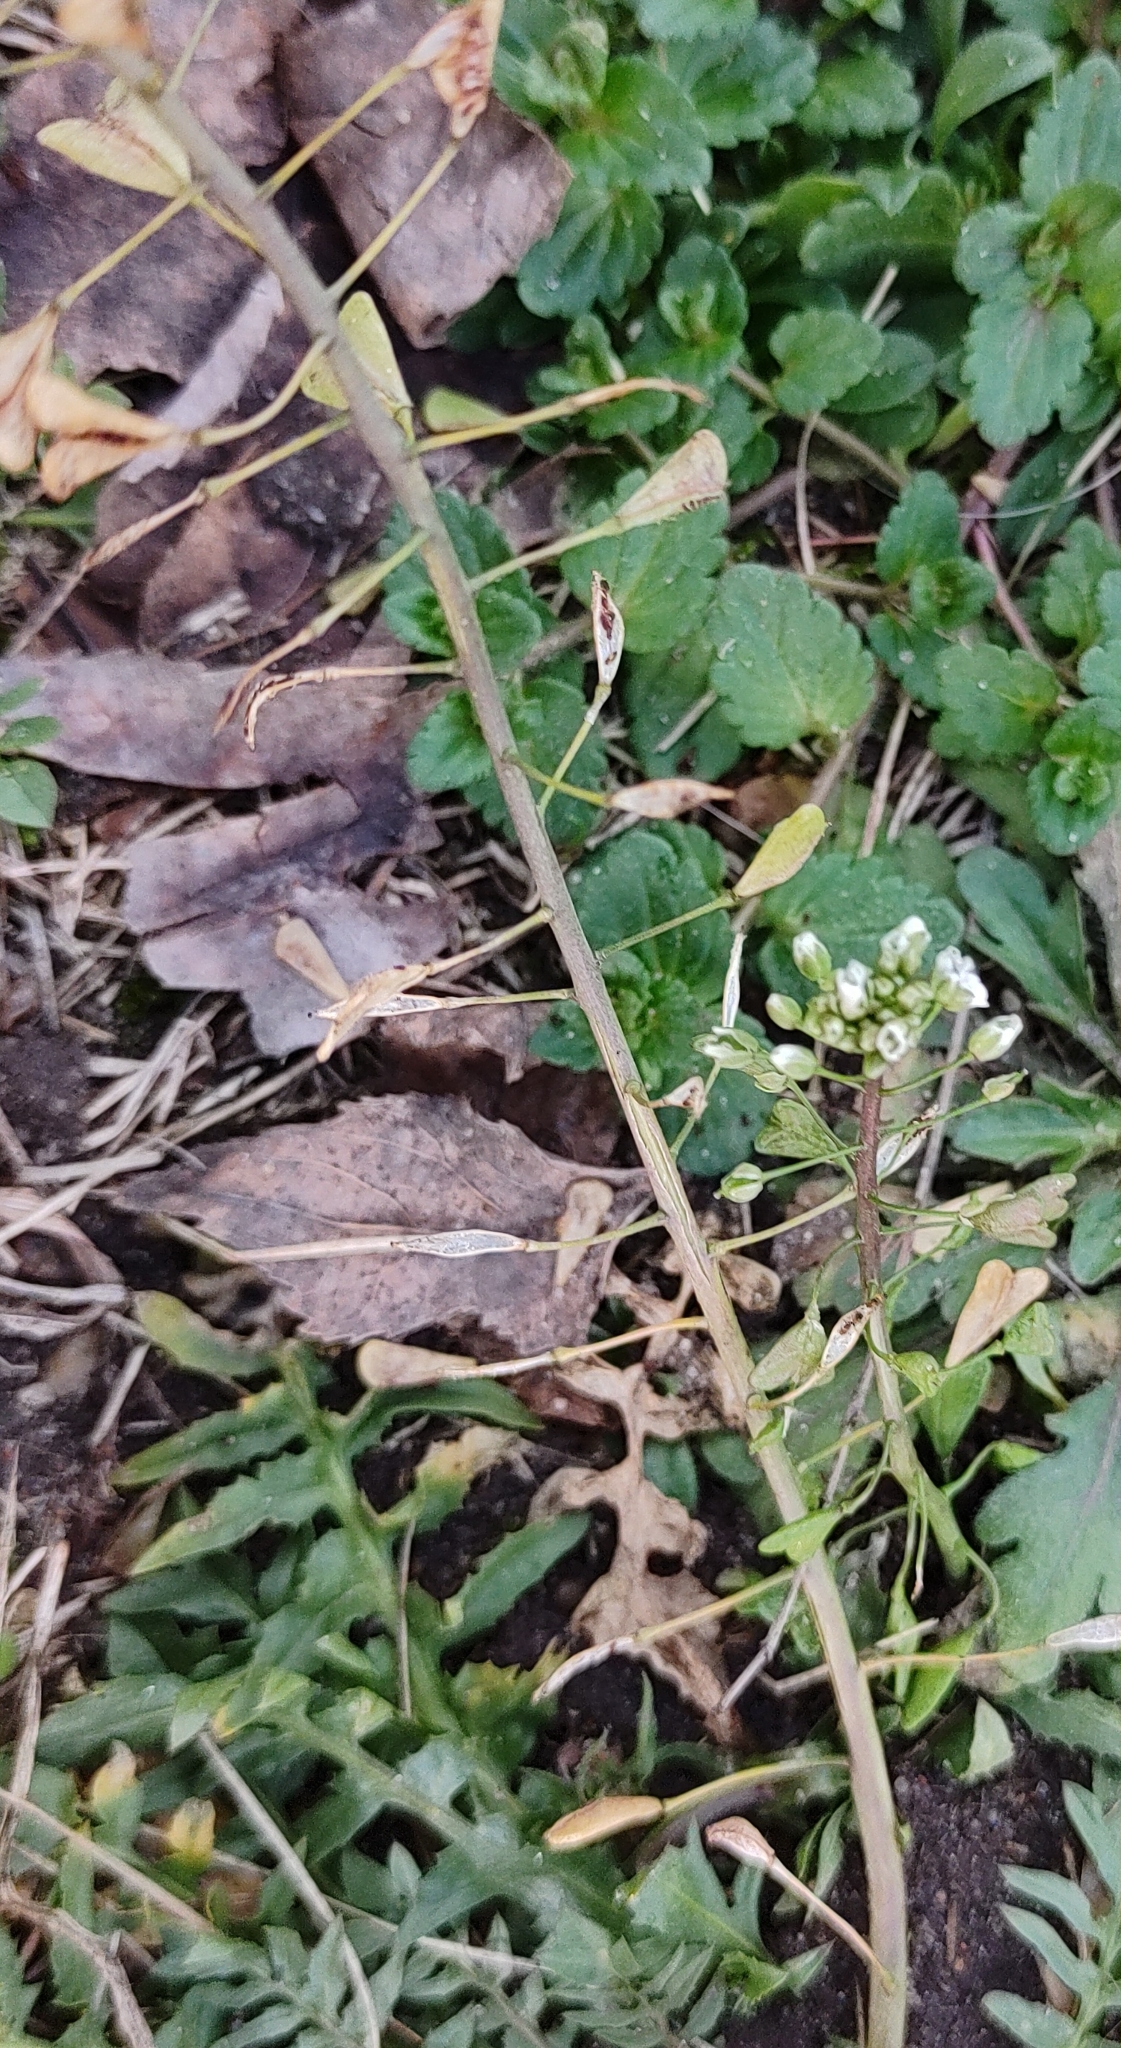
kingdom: Plantae
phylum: Tracheophyta
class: Magnoliopsida
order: Brassicales
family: Brassicaceae
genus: Capsella
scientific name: Capsella bursa-pastoris
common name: Shepherd's purse
